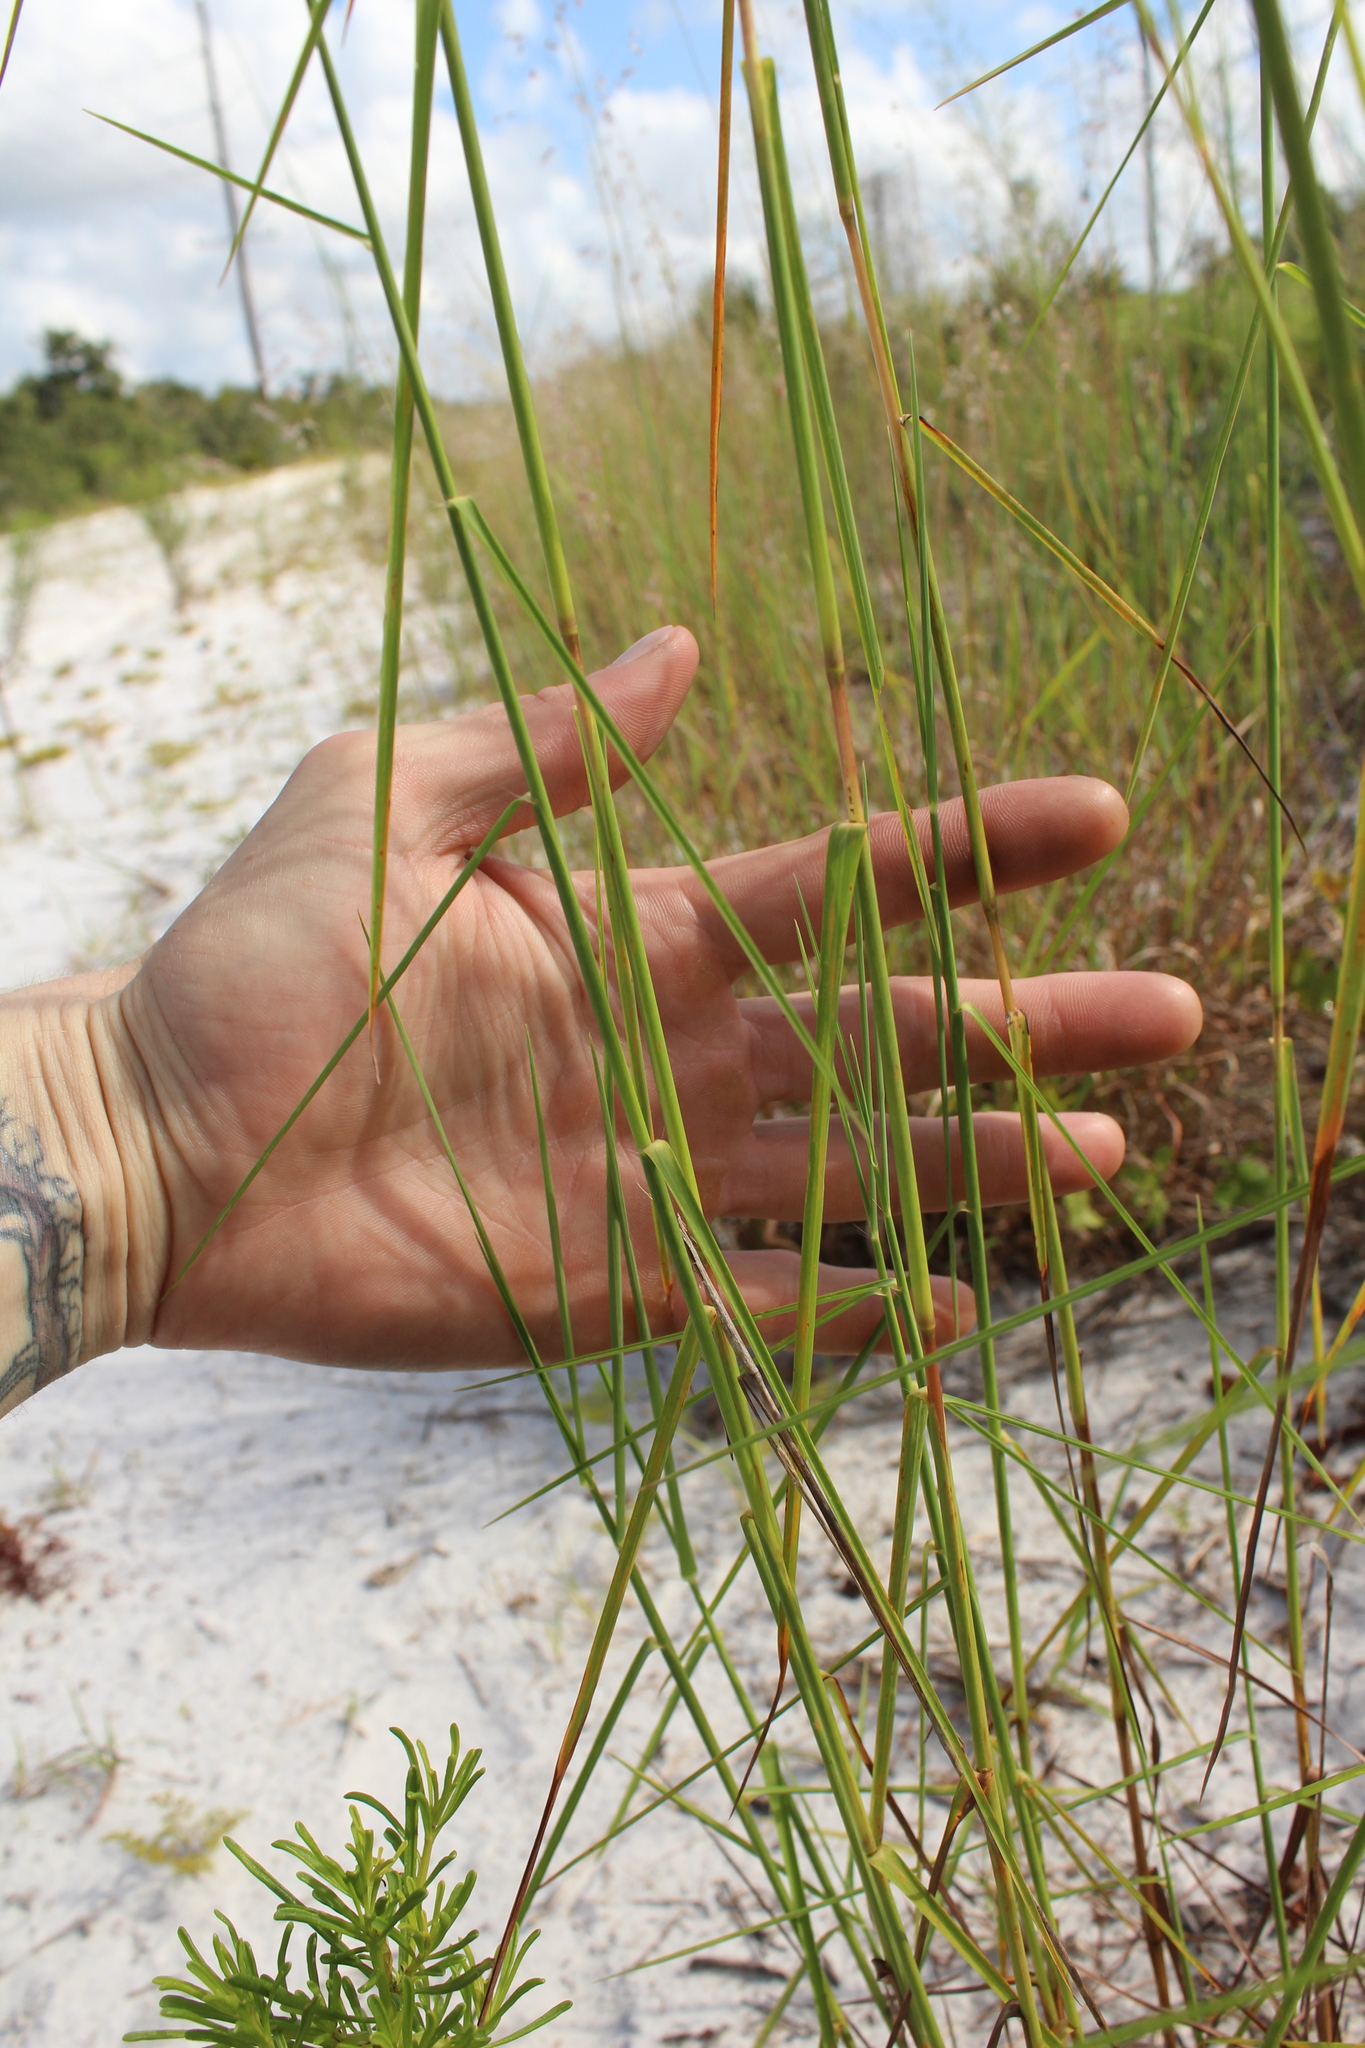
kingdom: Plantae
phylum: Tracheophyta
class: Liliopsida
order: Poales
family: Poaceae
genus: Schizachyrium
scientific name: Schizachyrium sanguineum
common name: Crimson bluestem
